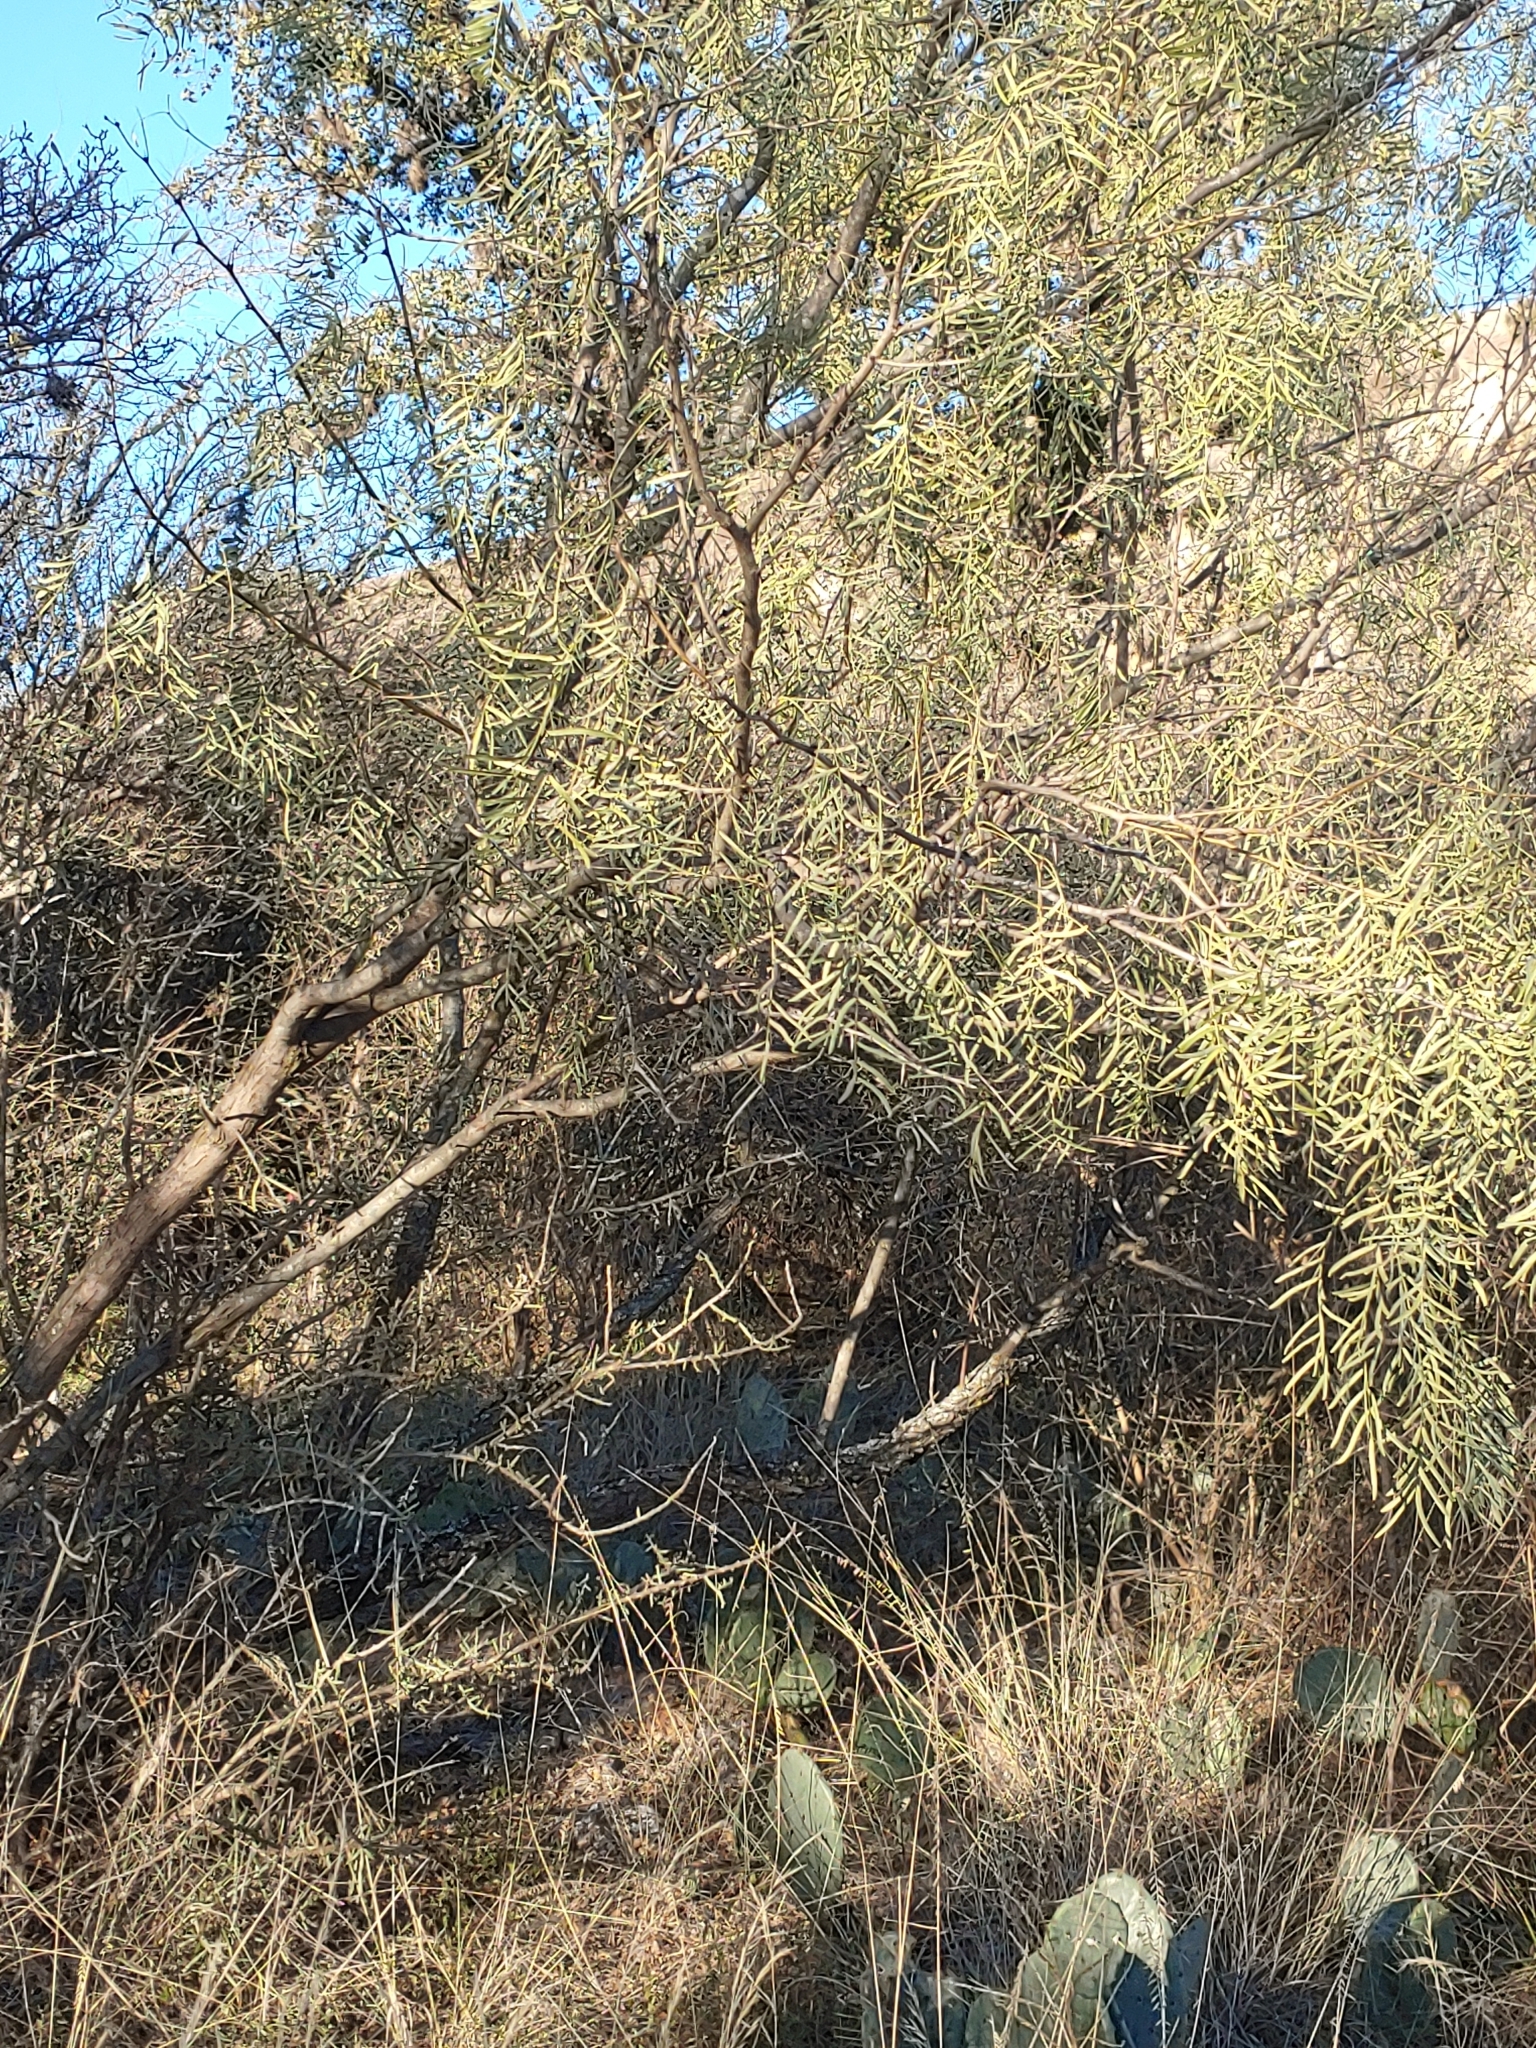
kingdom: Plantae
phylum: Tracheophyta
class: Magnoliopsida
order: Fabales
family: Fabaceae
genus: Prosopis
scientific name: Prosopis glandulosa
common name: Honey mesquite
